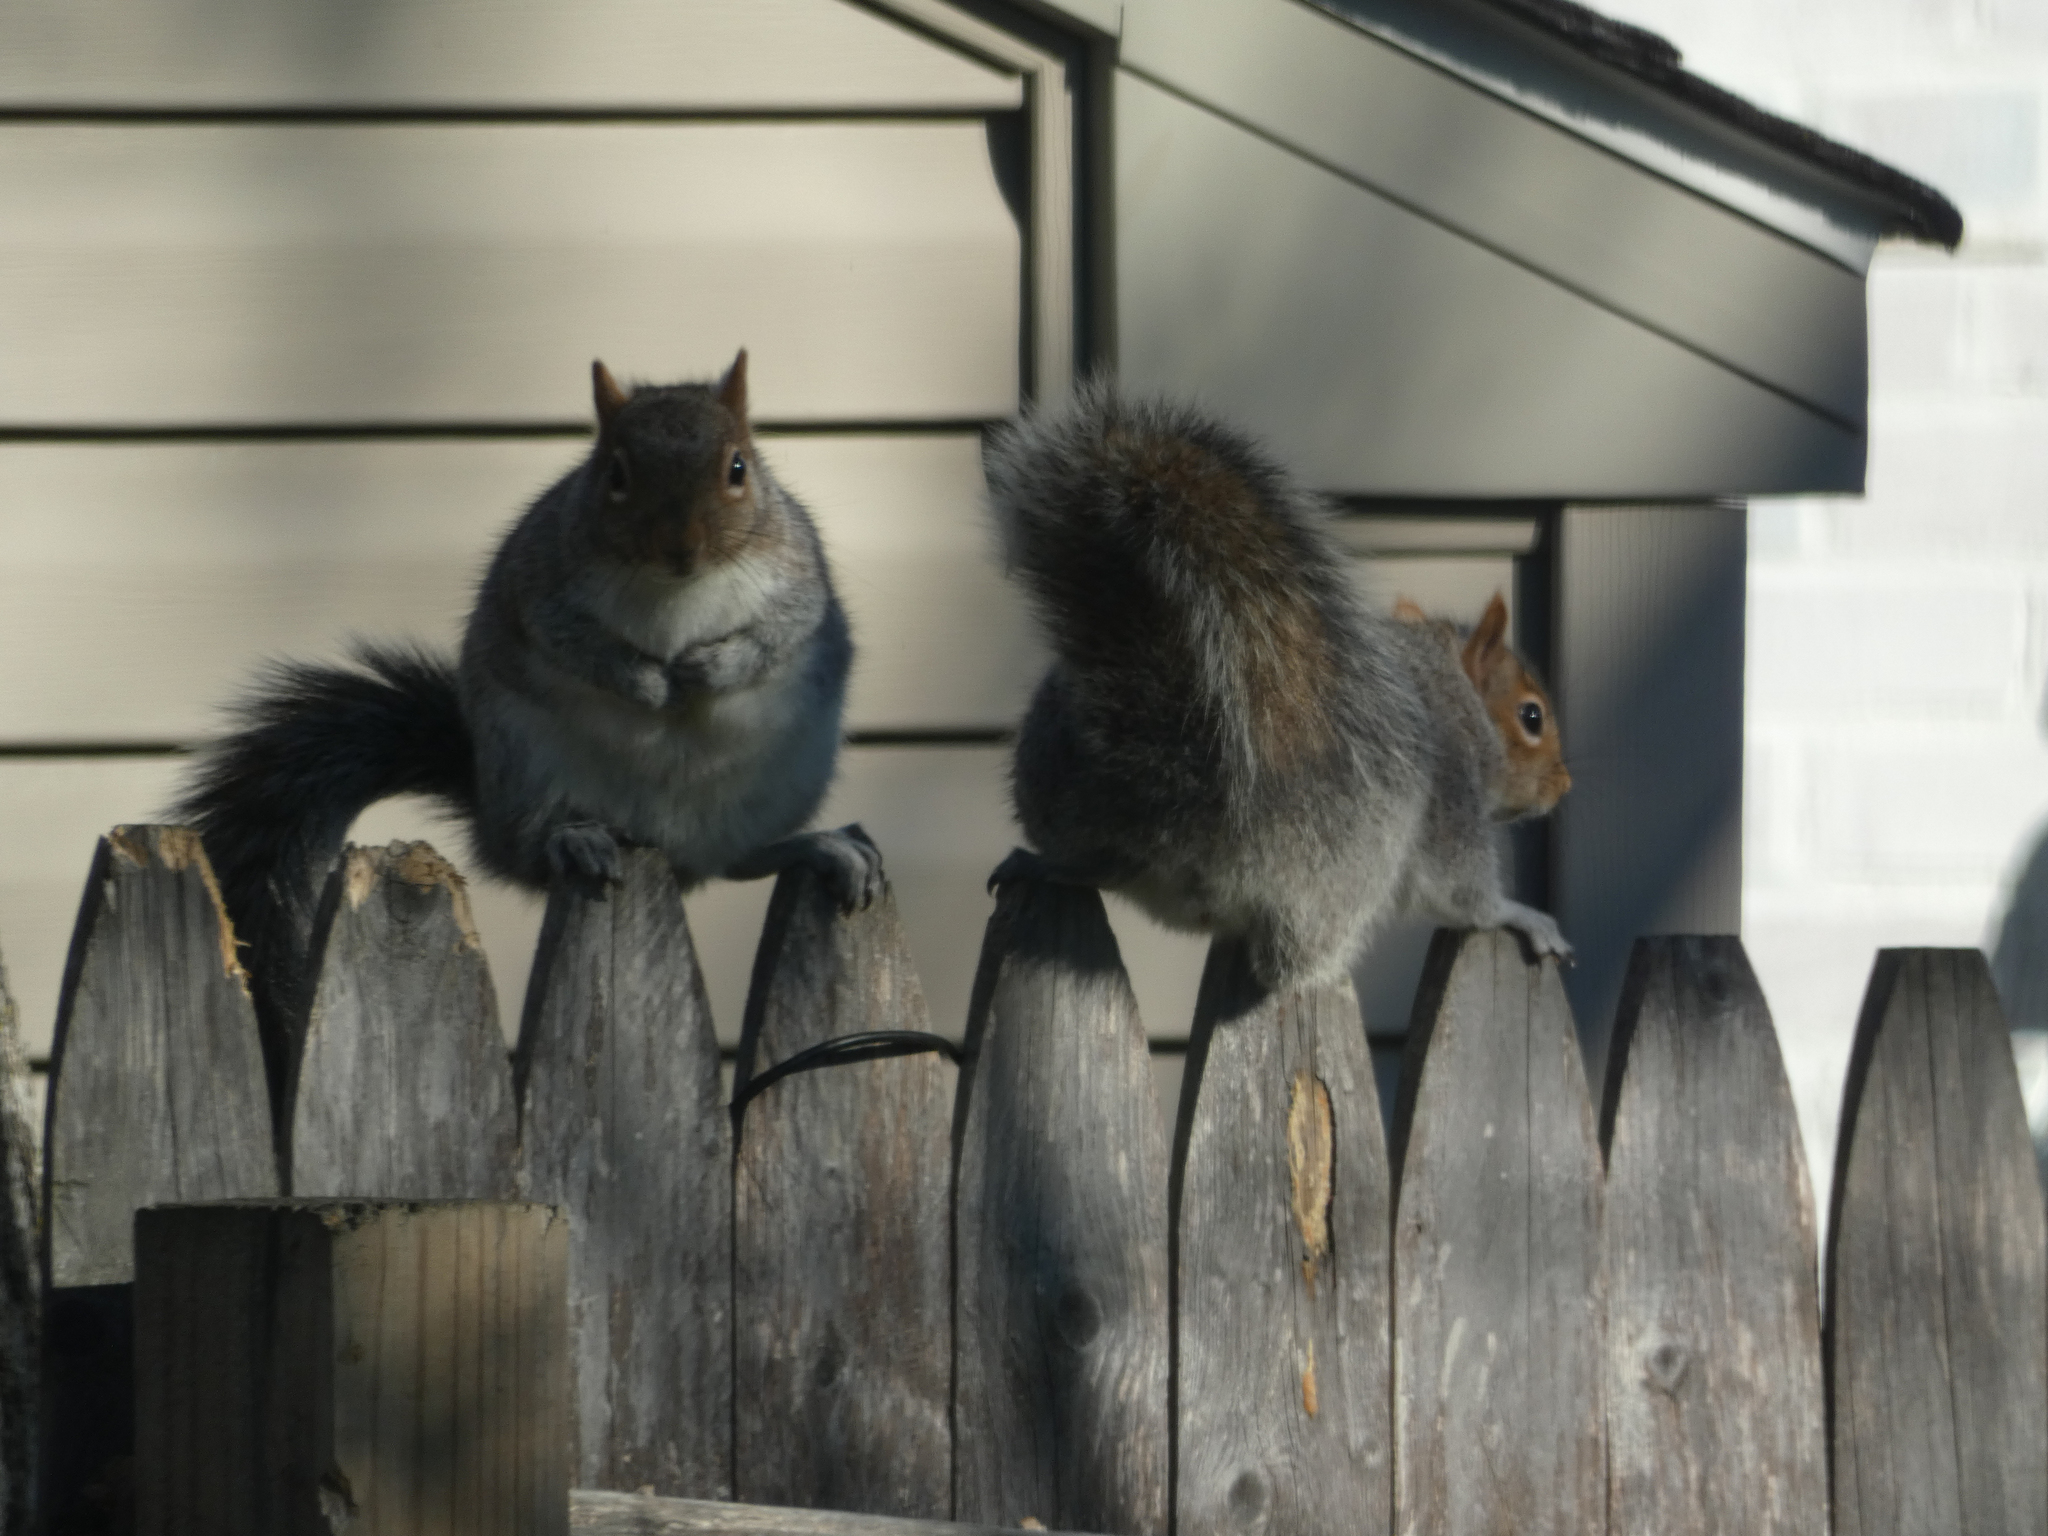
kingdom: Animalia
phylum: Chordata
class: Mammalia
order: Rodentia
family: Sciuridae
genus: Sciurus
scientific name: Sciurus carolinensis
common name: Eastern gray squirrel
